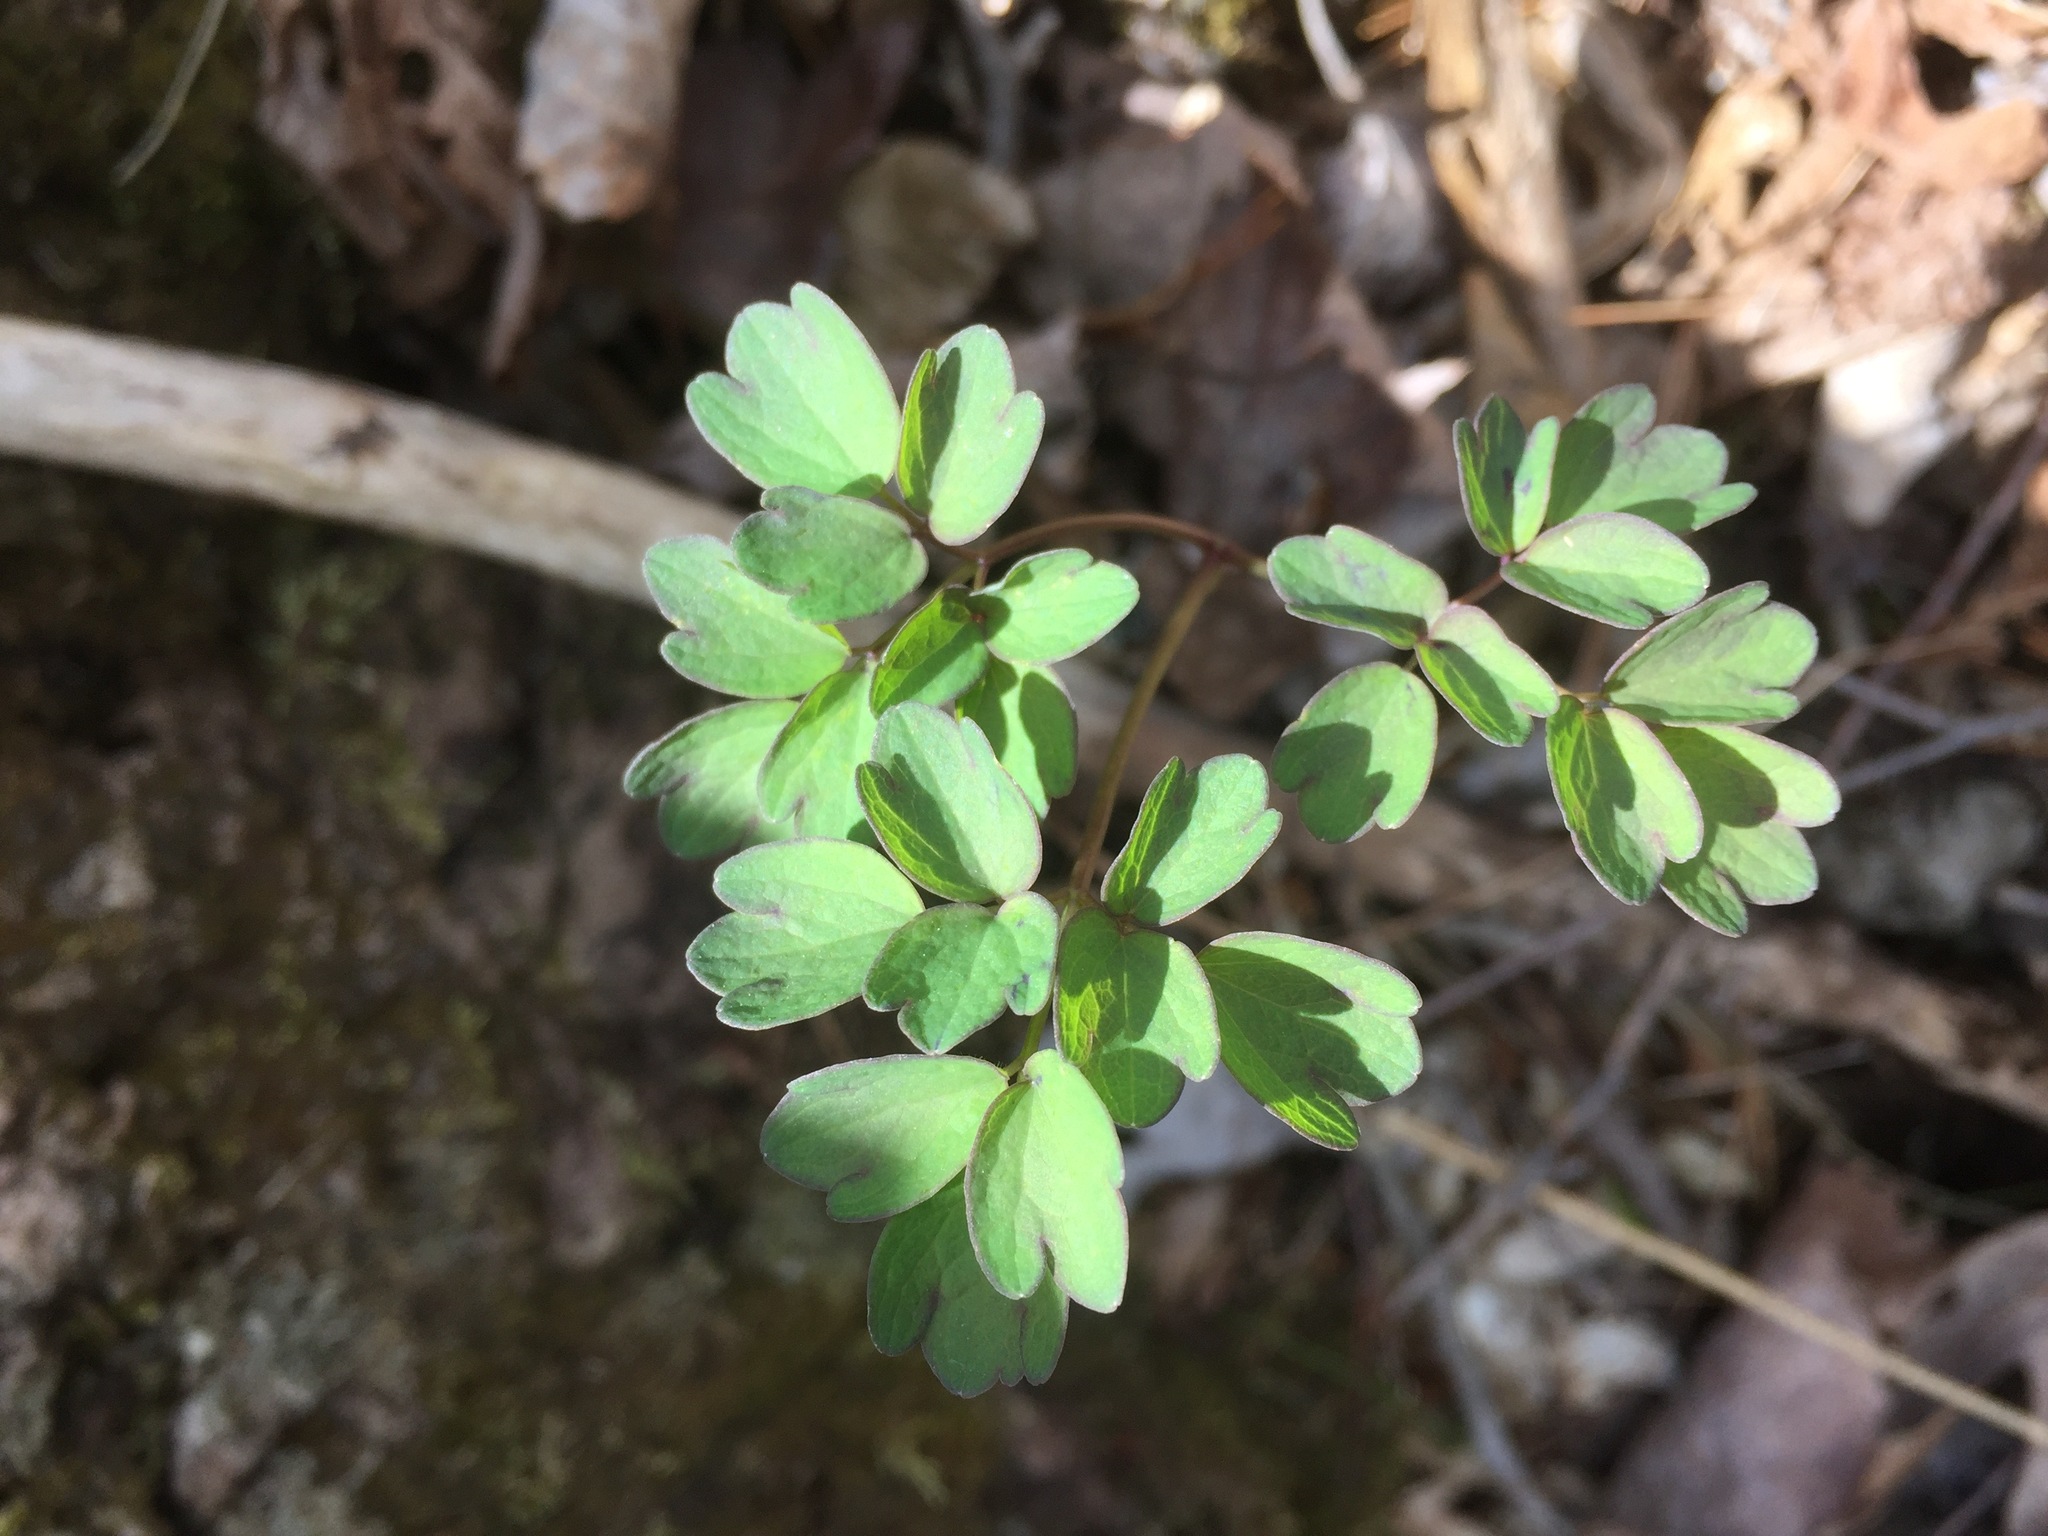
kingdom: Plantae
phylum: Tracheophyta
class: Magnoliopsida
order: Ranunculales
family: Ranunculaceae
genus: Thalictrum
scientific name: Thalictrum pubescens
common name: King-of-the-meadow
